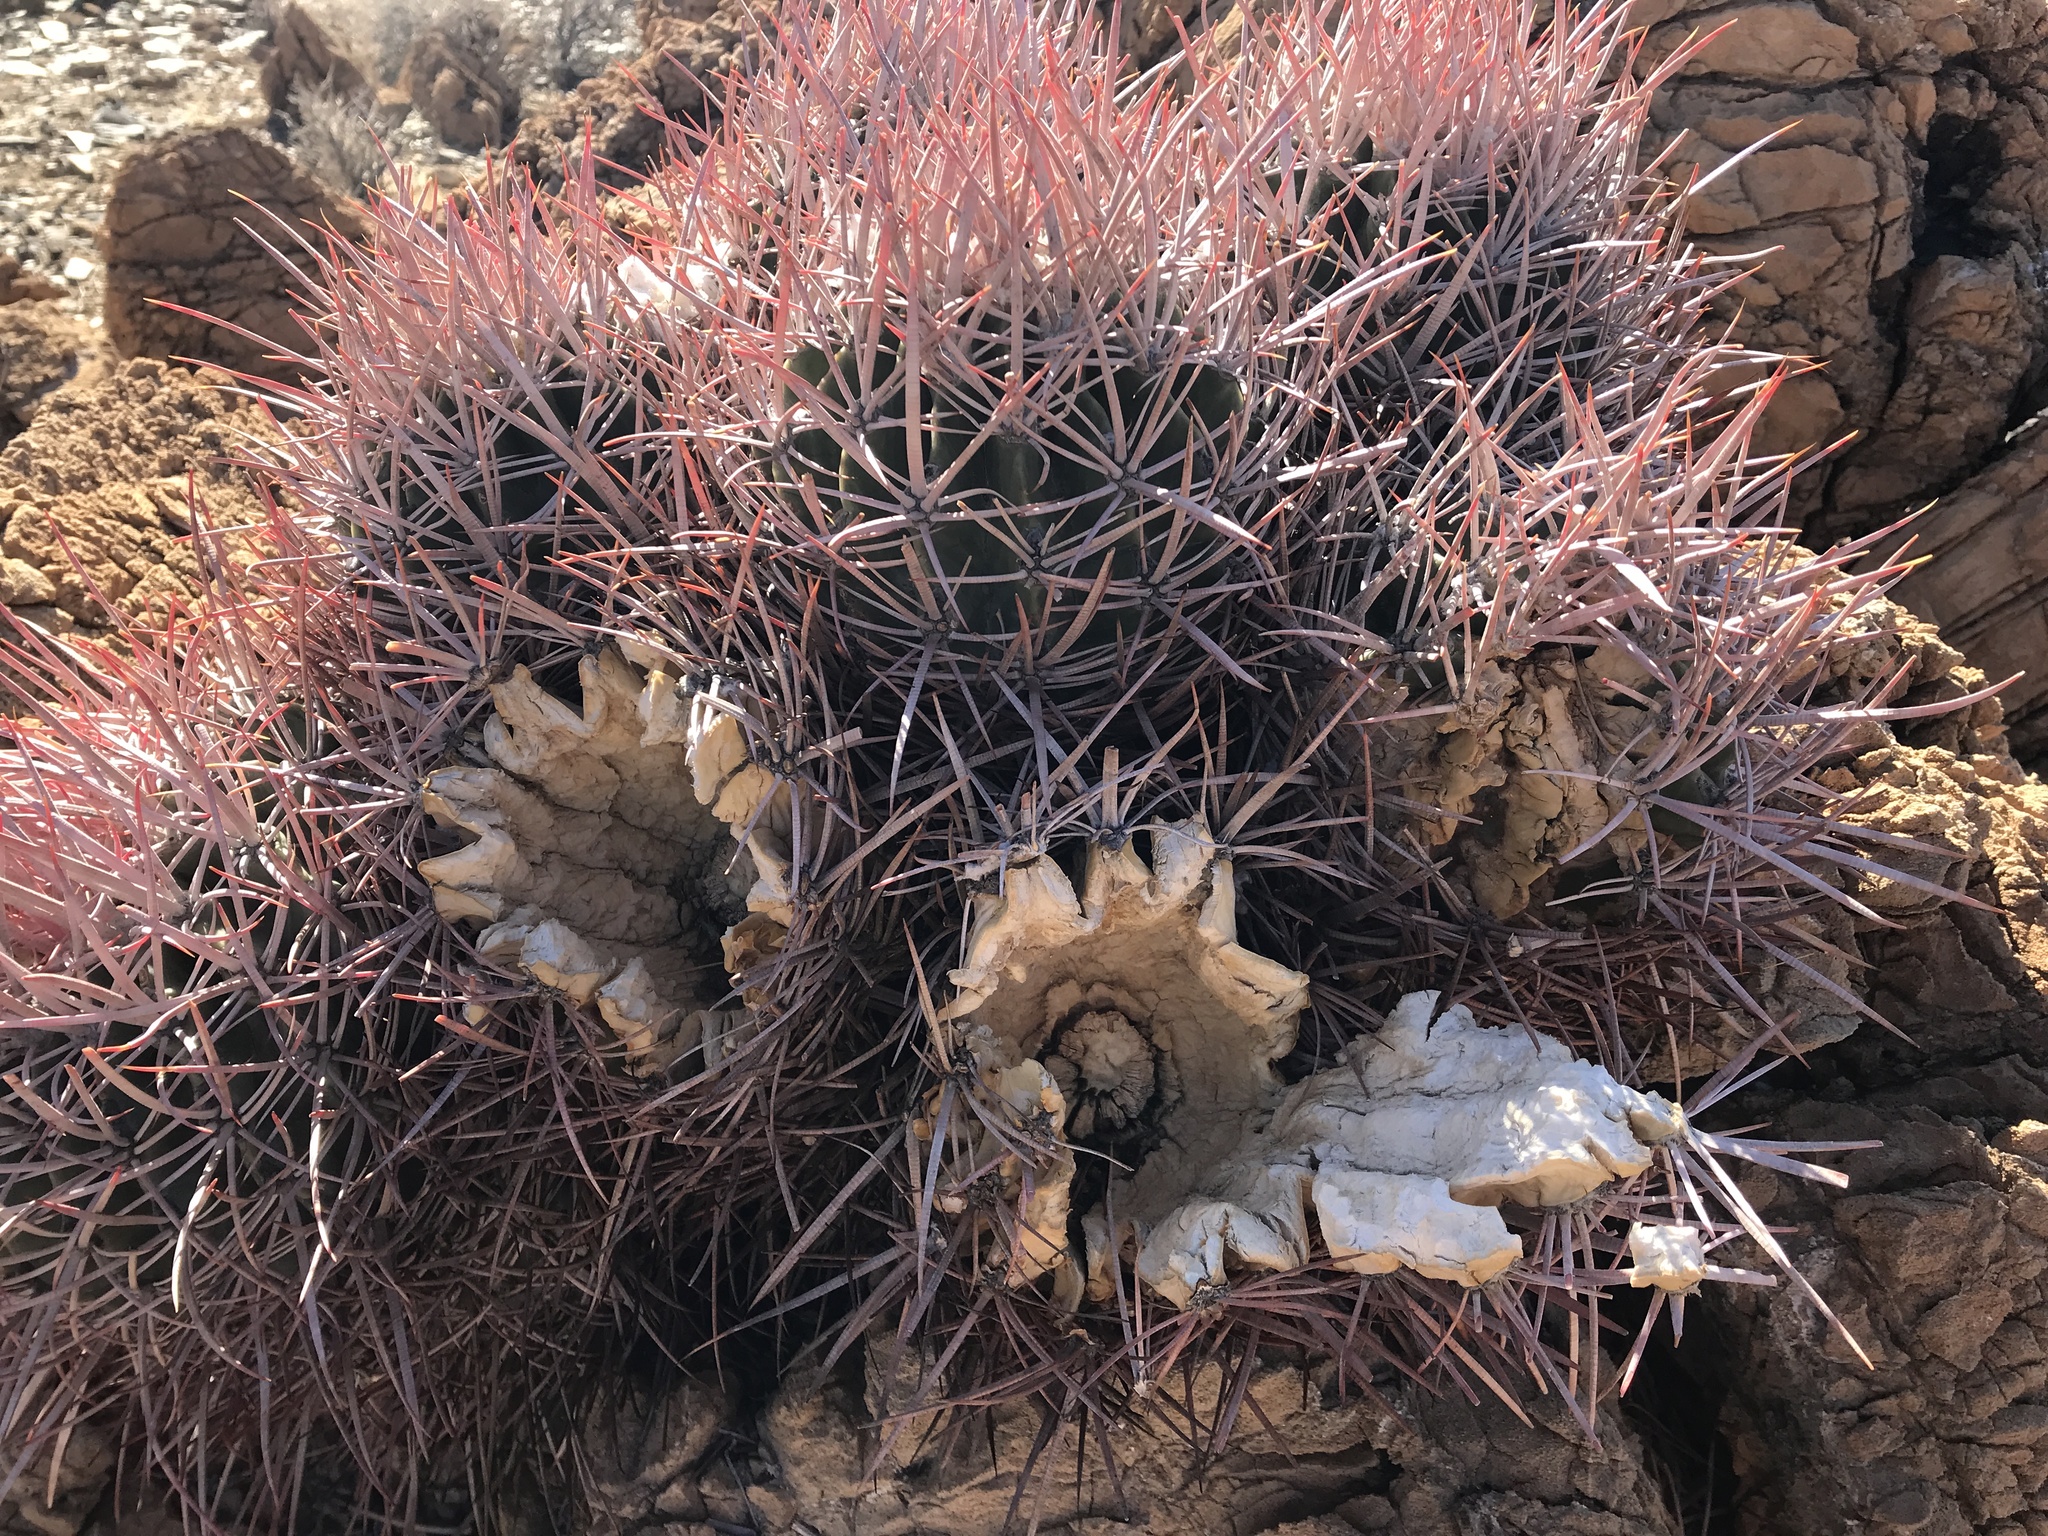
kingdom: Plantae
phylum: Tracheophyta
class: Magnoliopsida
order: Caryophyllales
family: Cactaceae
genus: Echinocactus
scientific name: Echinocactus polycephalus
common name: Cottontop cactus
